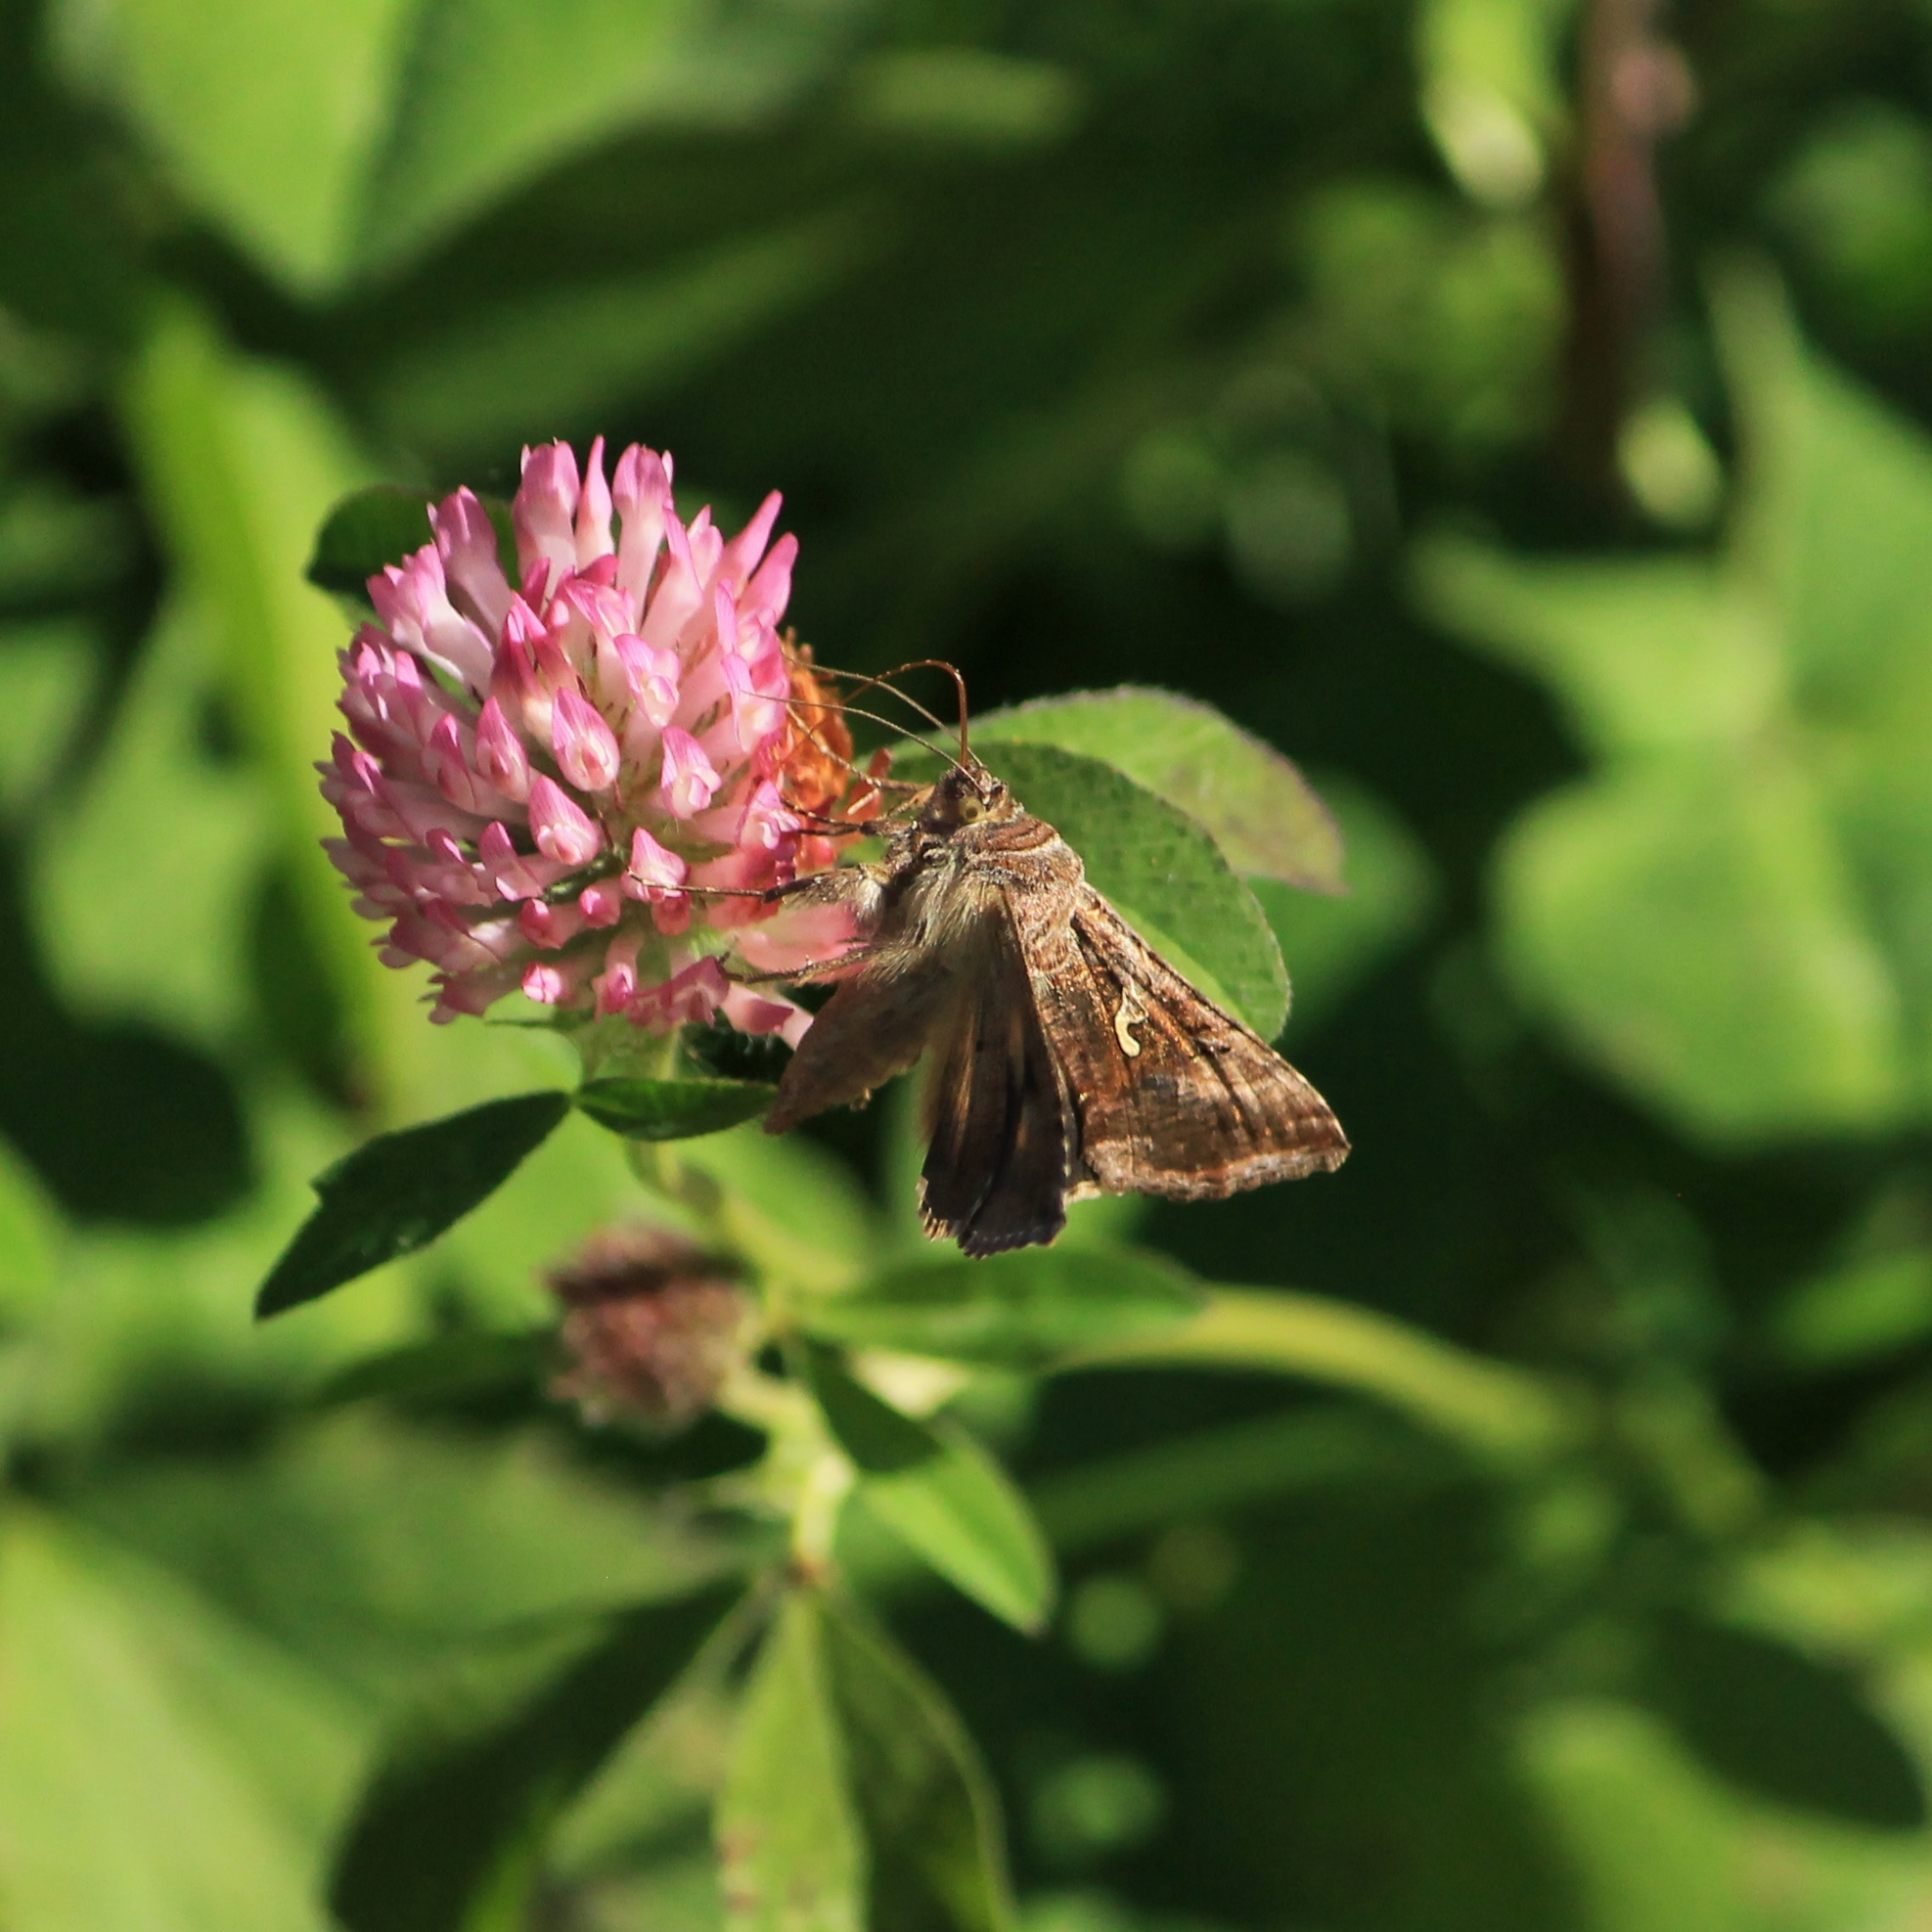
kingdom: Animalia
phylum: Arthropoda
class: Insecta
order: Lepidoptera
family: Noctuidae
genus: Autographa
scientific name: Autographa gamma
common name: Silver y
